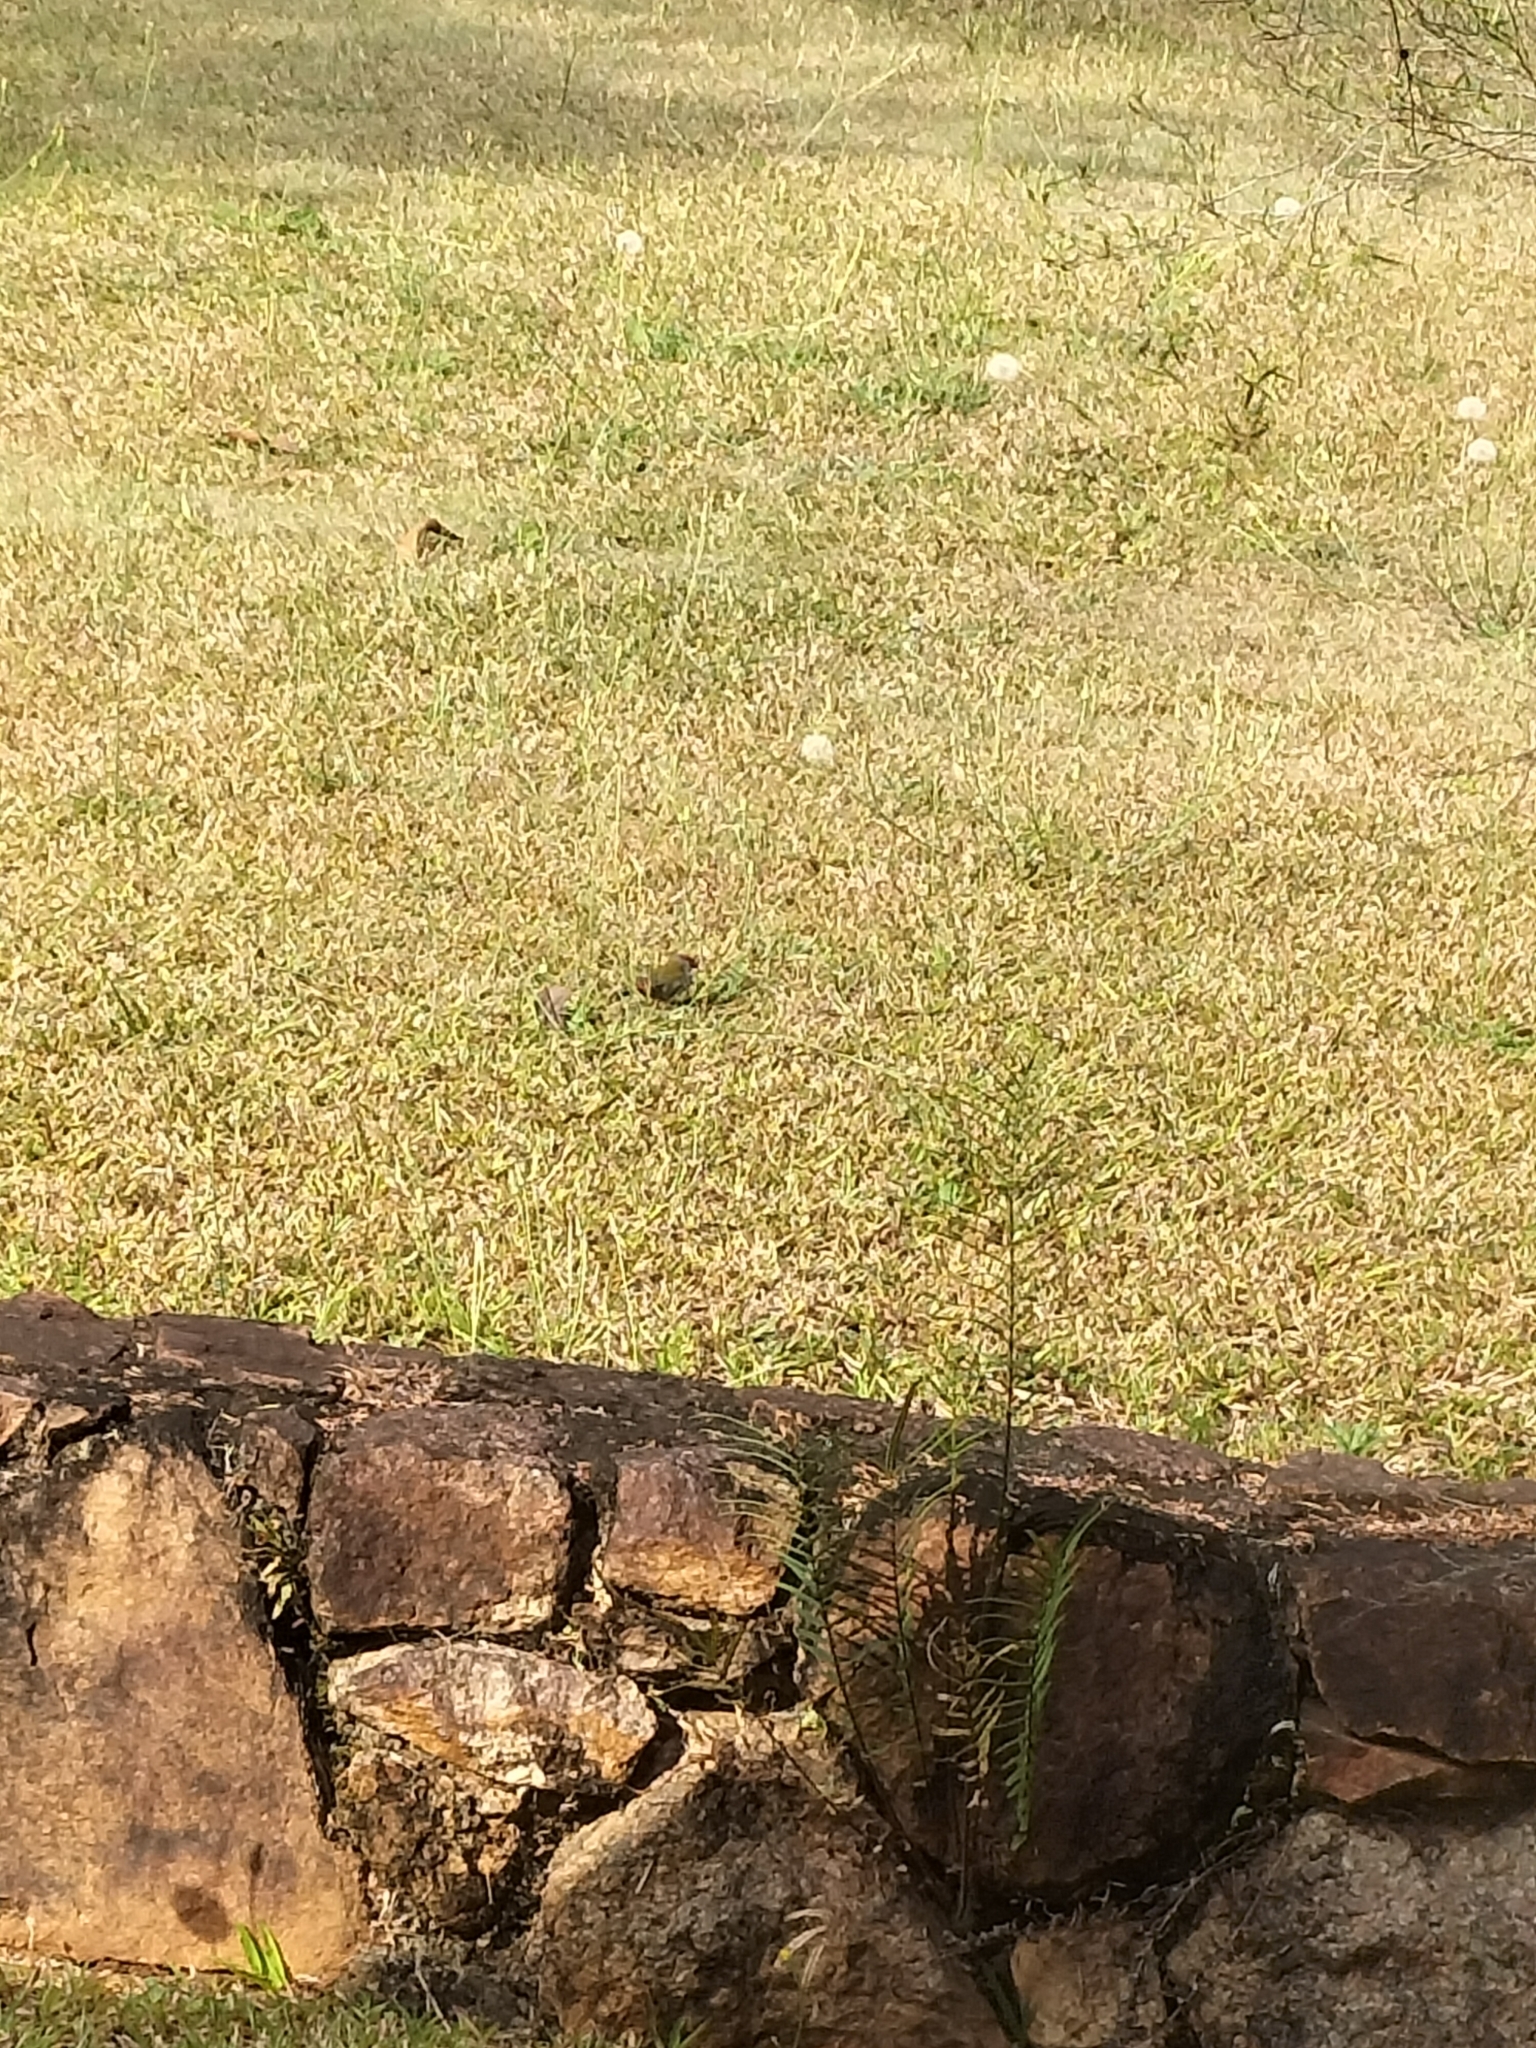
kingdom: Animalia
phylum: Chordata
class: Aves
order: Passeriformes
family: Estrildidae
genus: Neochmia
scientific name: Neochmia temporalis
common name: Red-browed finch
